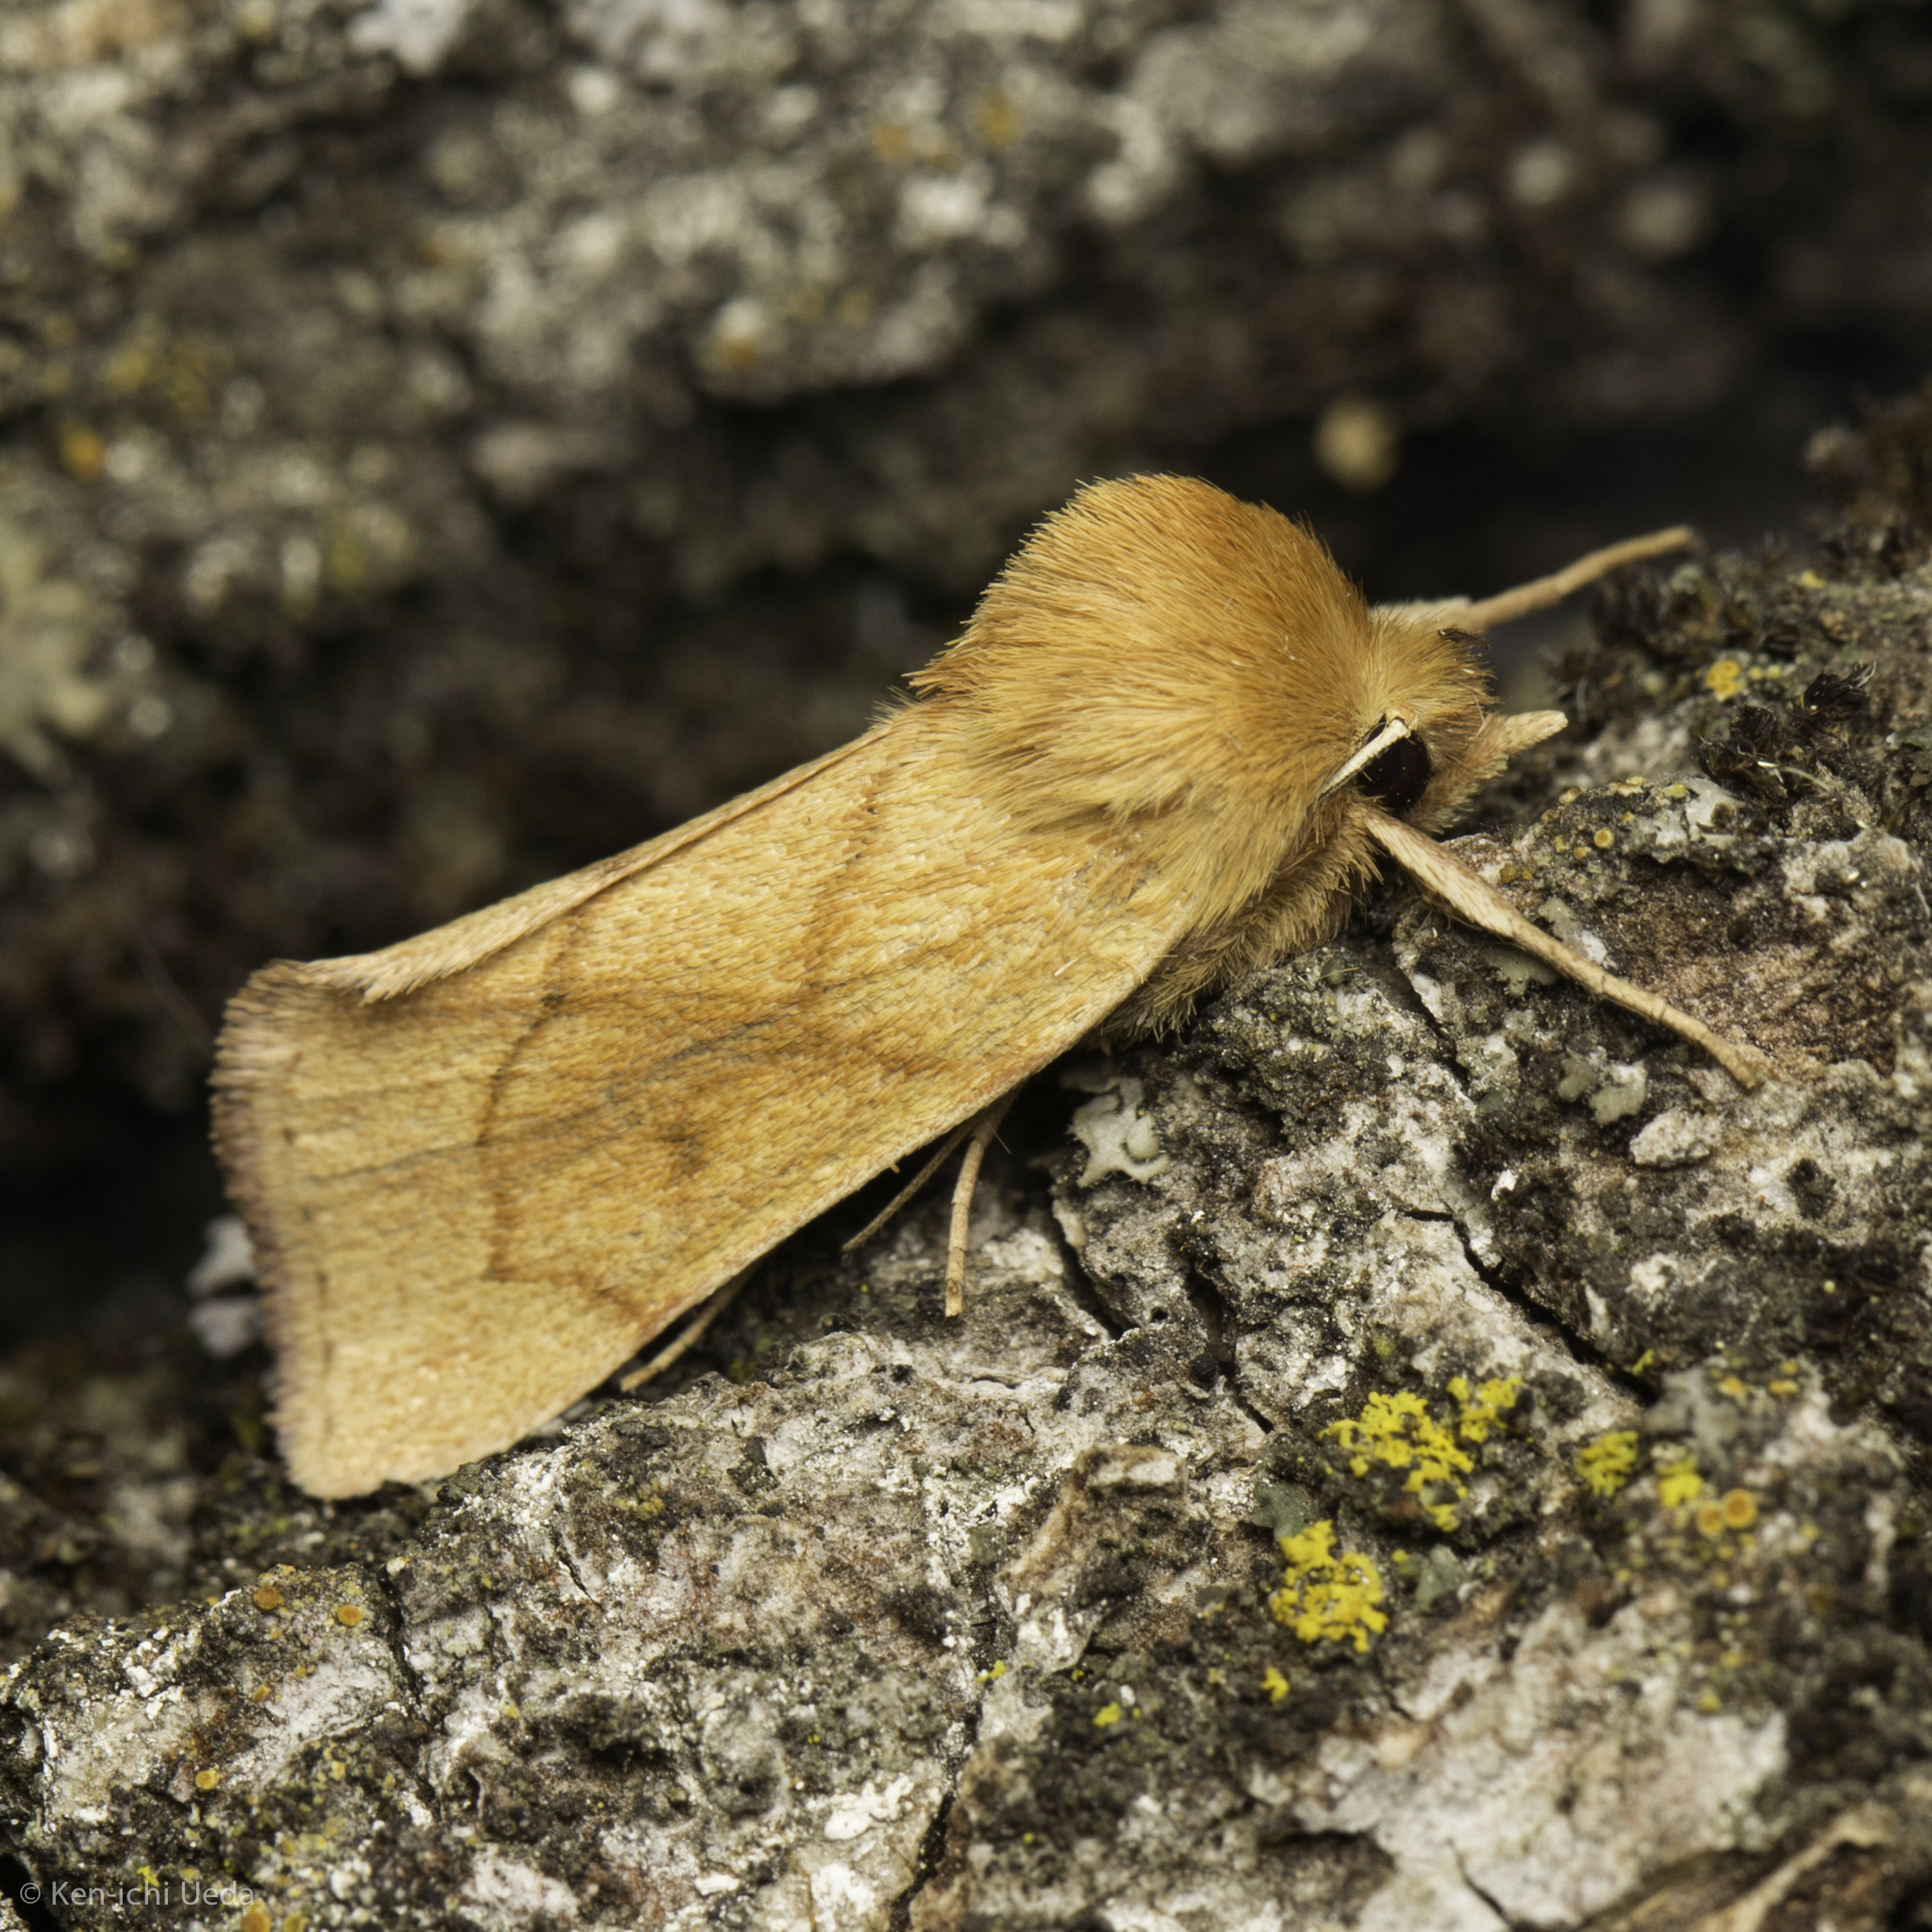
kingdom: Animalia
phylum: Arthropoda
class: Insecta
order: Lepidoptera
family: Noctuidae
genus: Zosteropoda
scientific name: Zosteropoda hirtipes
